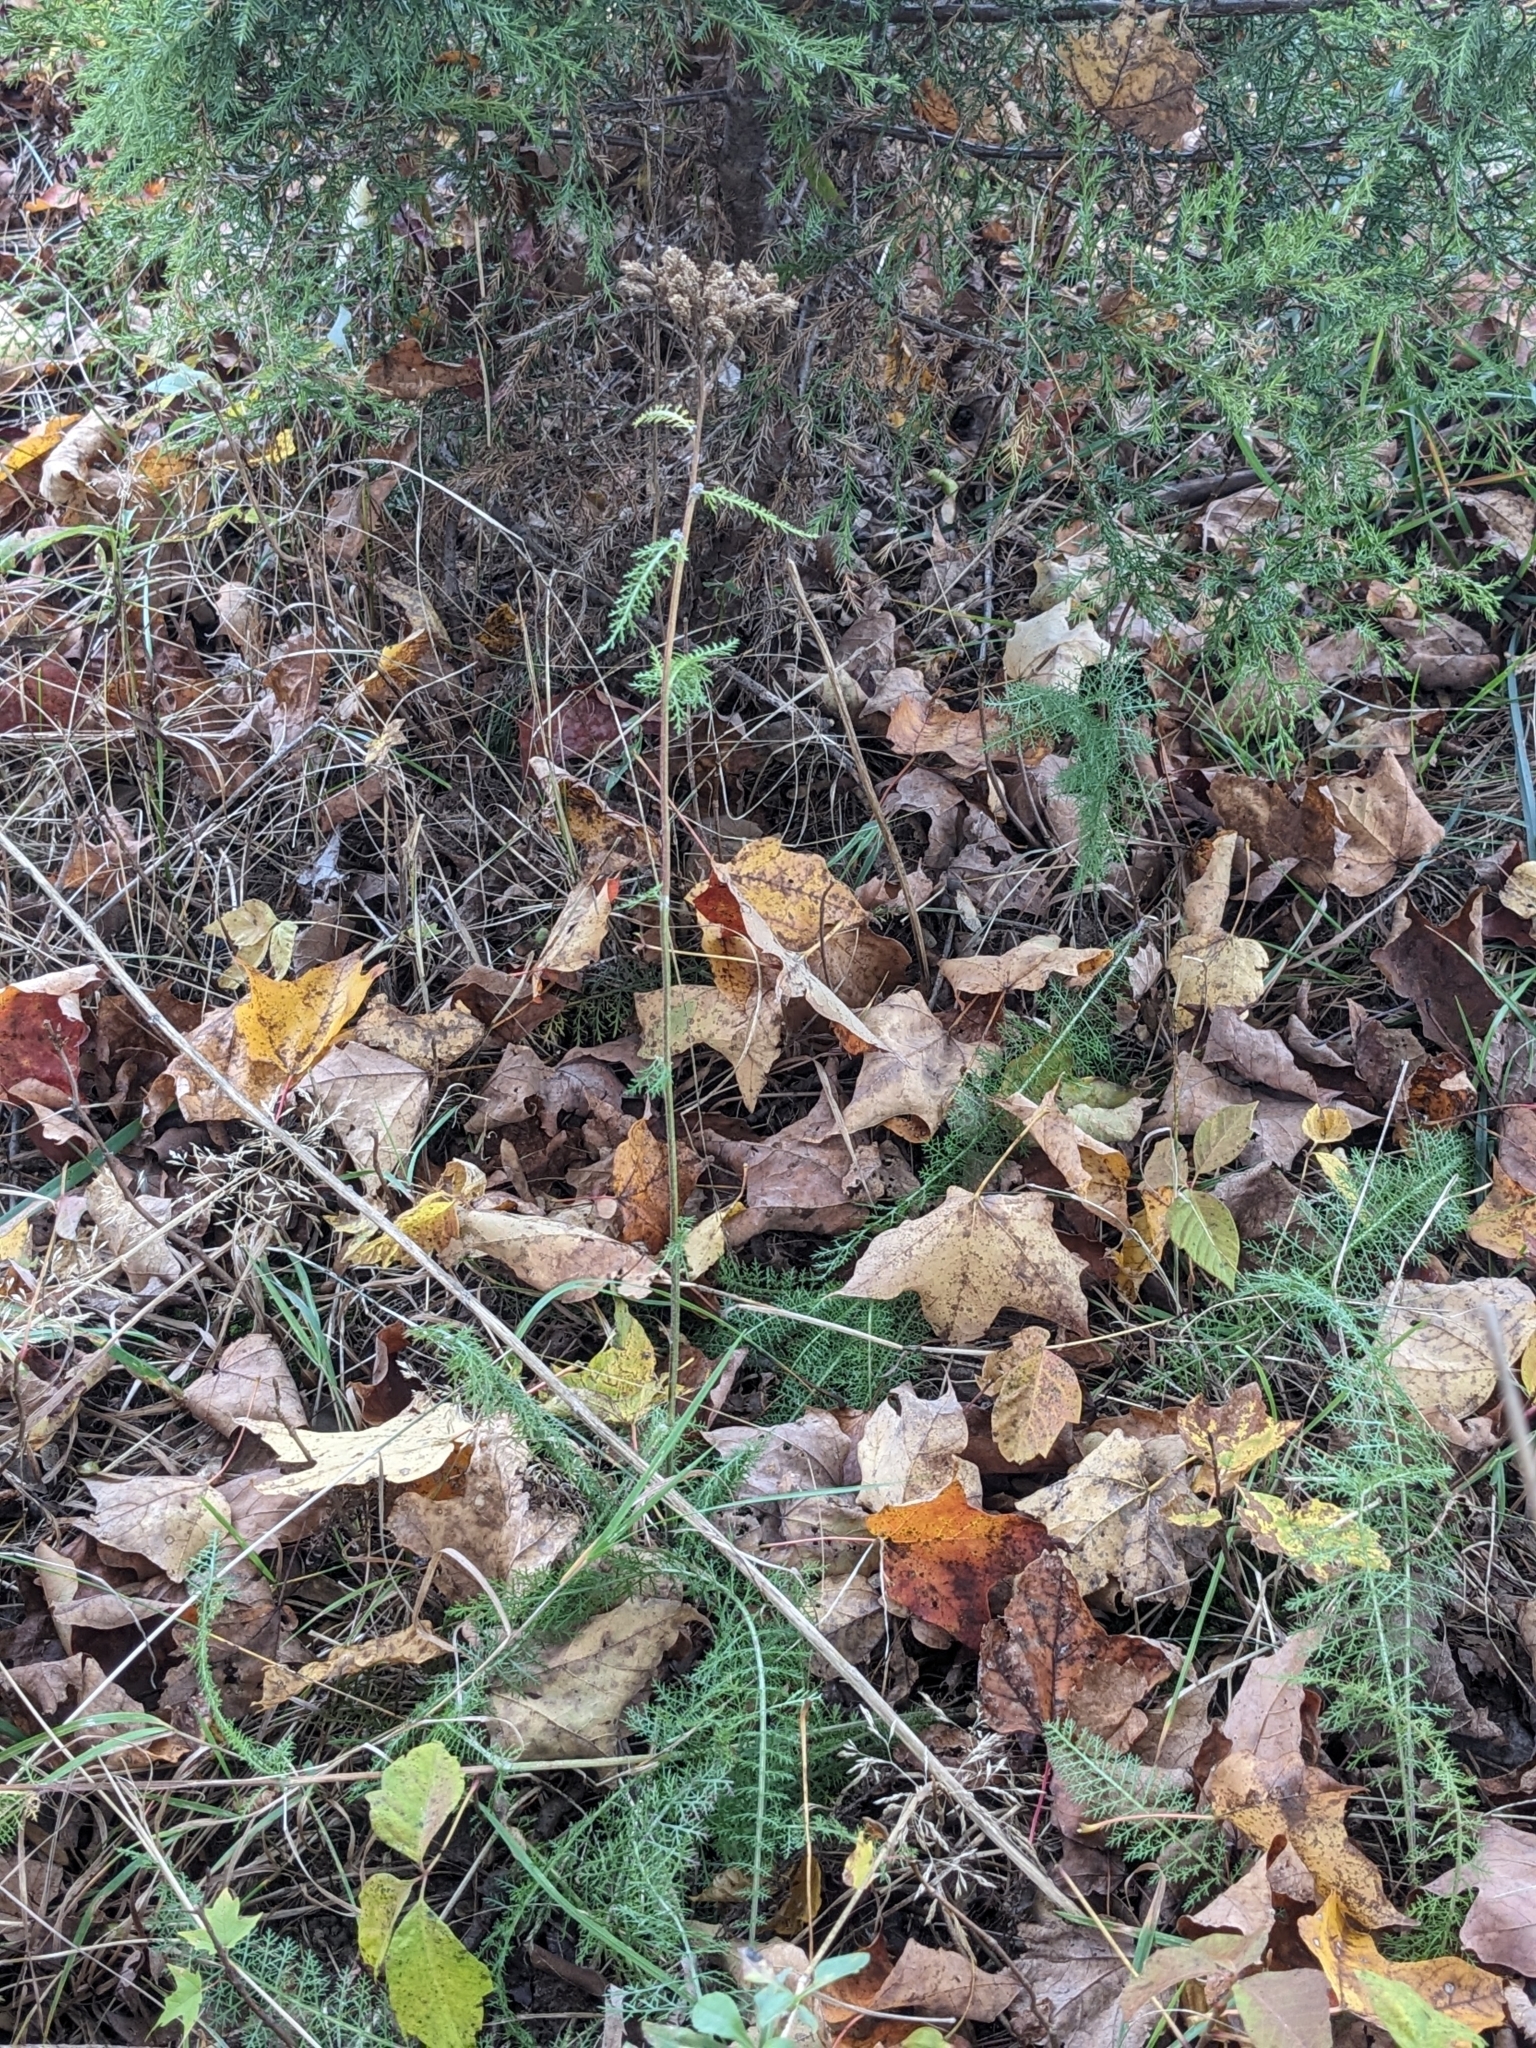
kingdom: Plantae
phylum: Tracheophyta
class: Magnoliopsida
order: Asterales
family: Asteraceae
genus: Achillea
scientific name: Achillea millefolium
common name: Yarrow
